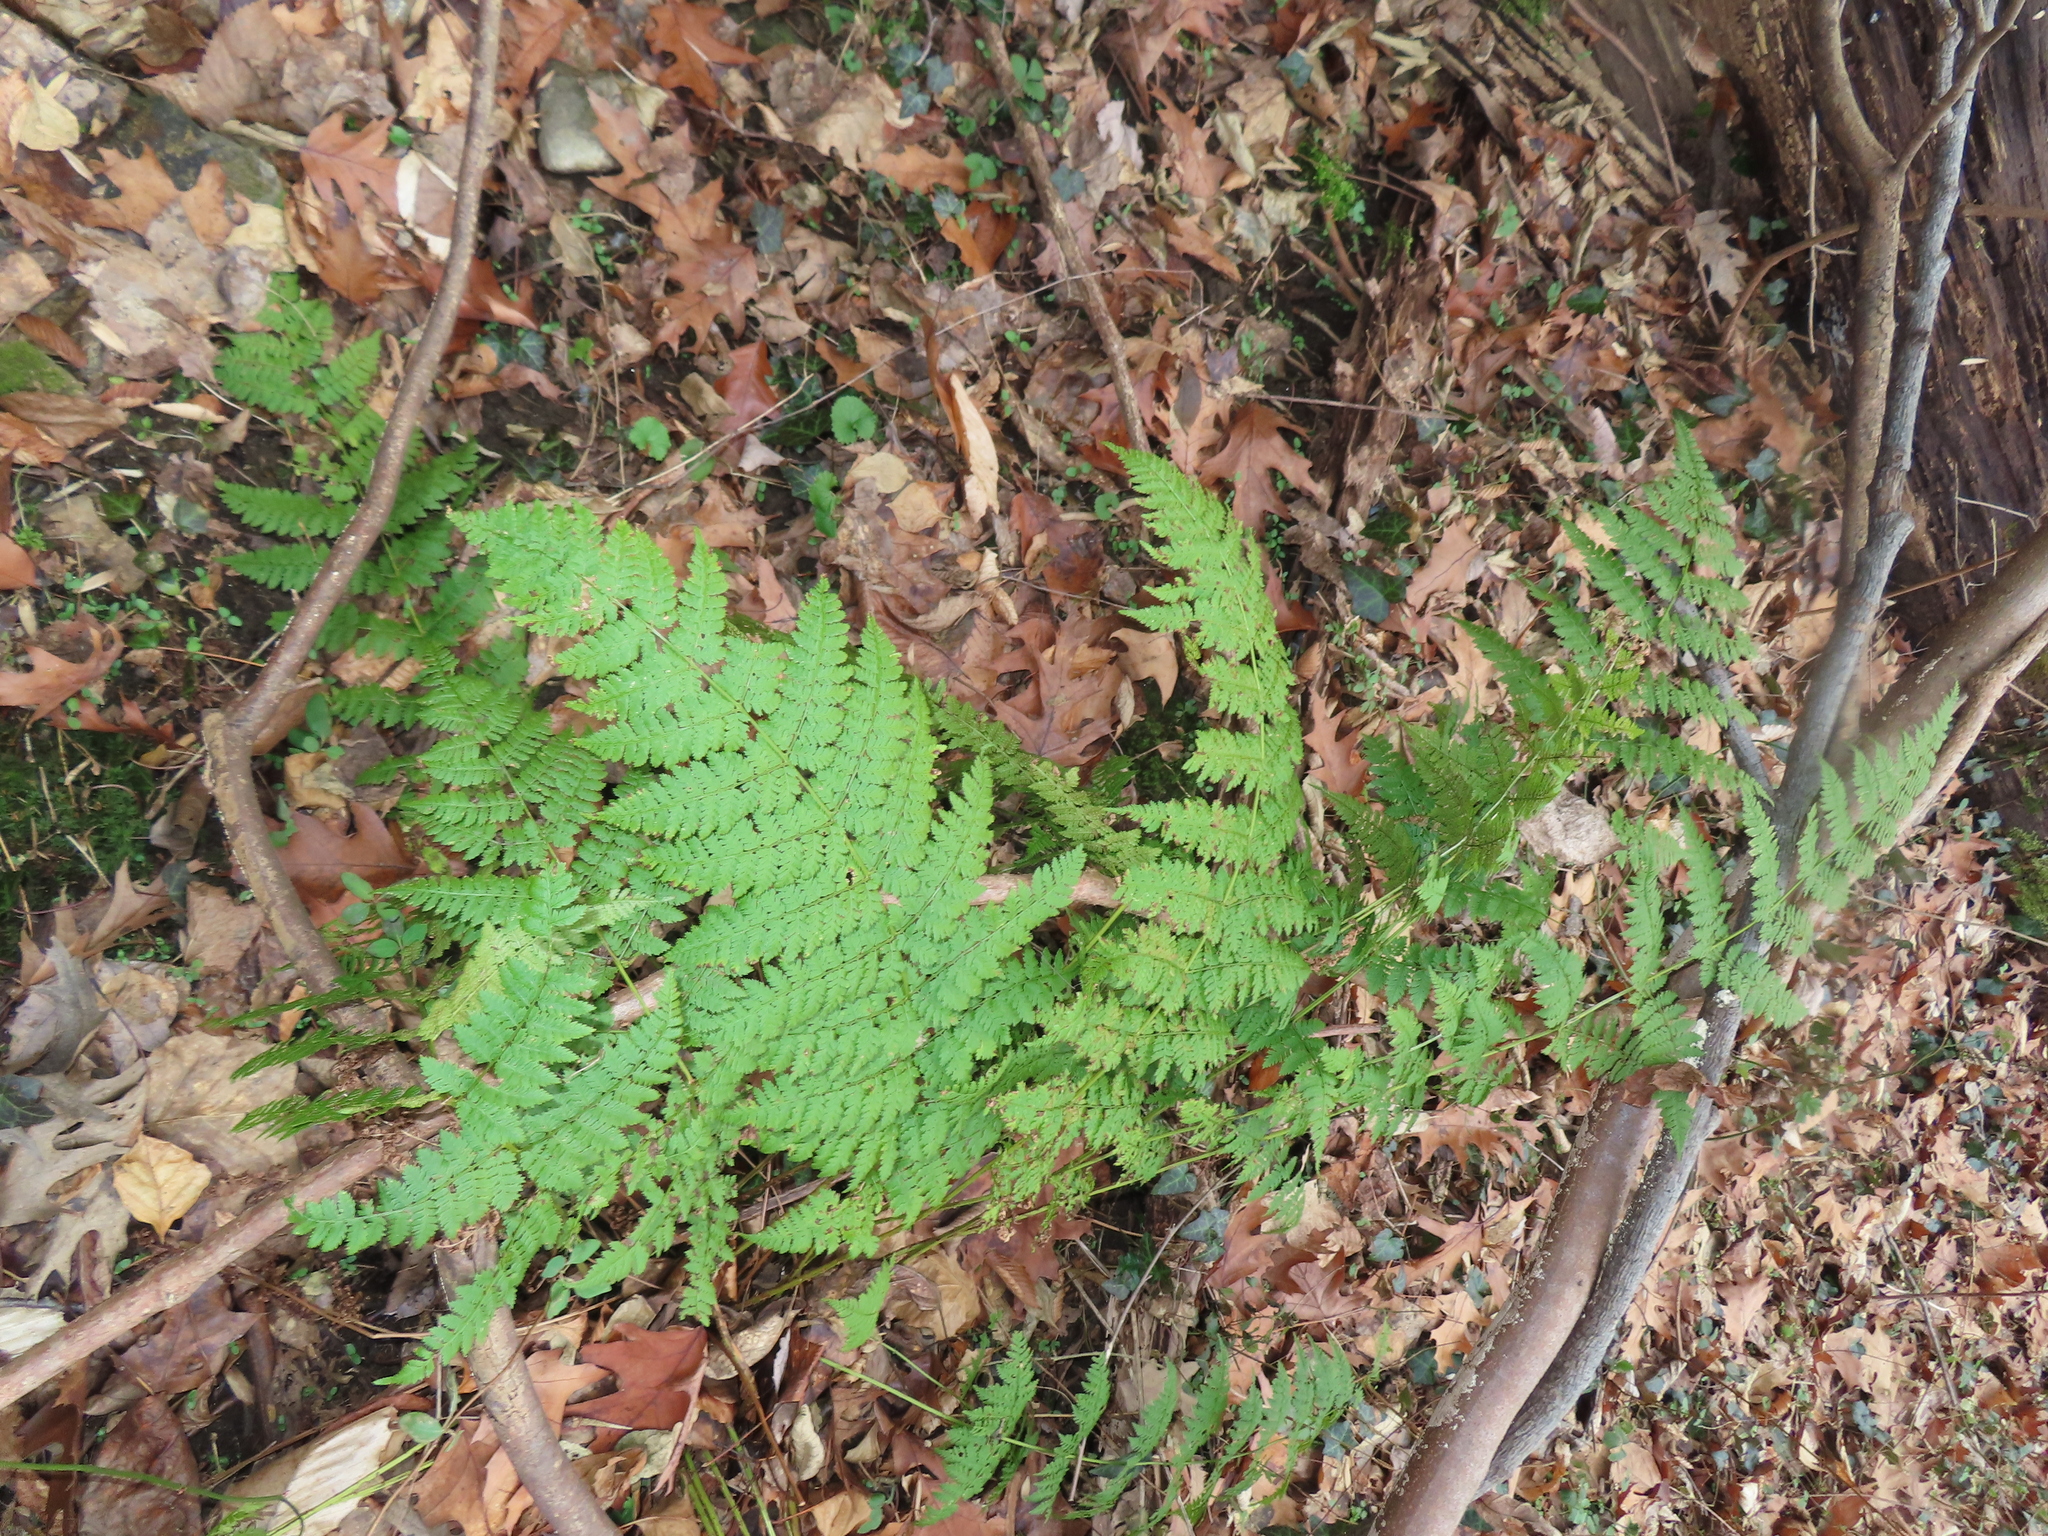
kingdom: Plantae
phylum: Tracheophyta
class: Polypodiopsida
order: Polypodiales
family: Dryopteridaceae
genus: Dryopteris
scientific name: Dryopteris intermedia
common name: Evergreen wood fern
